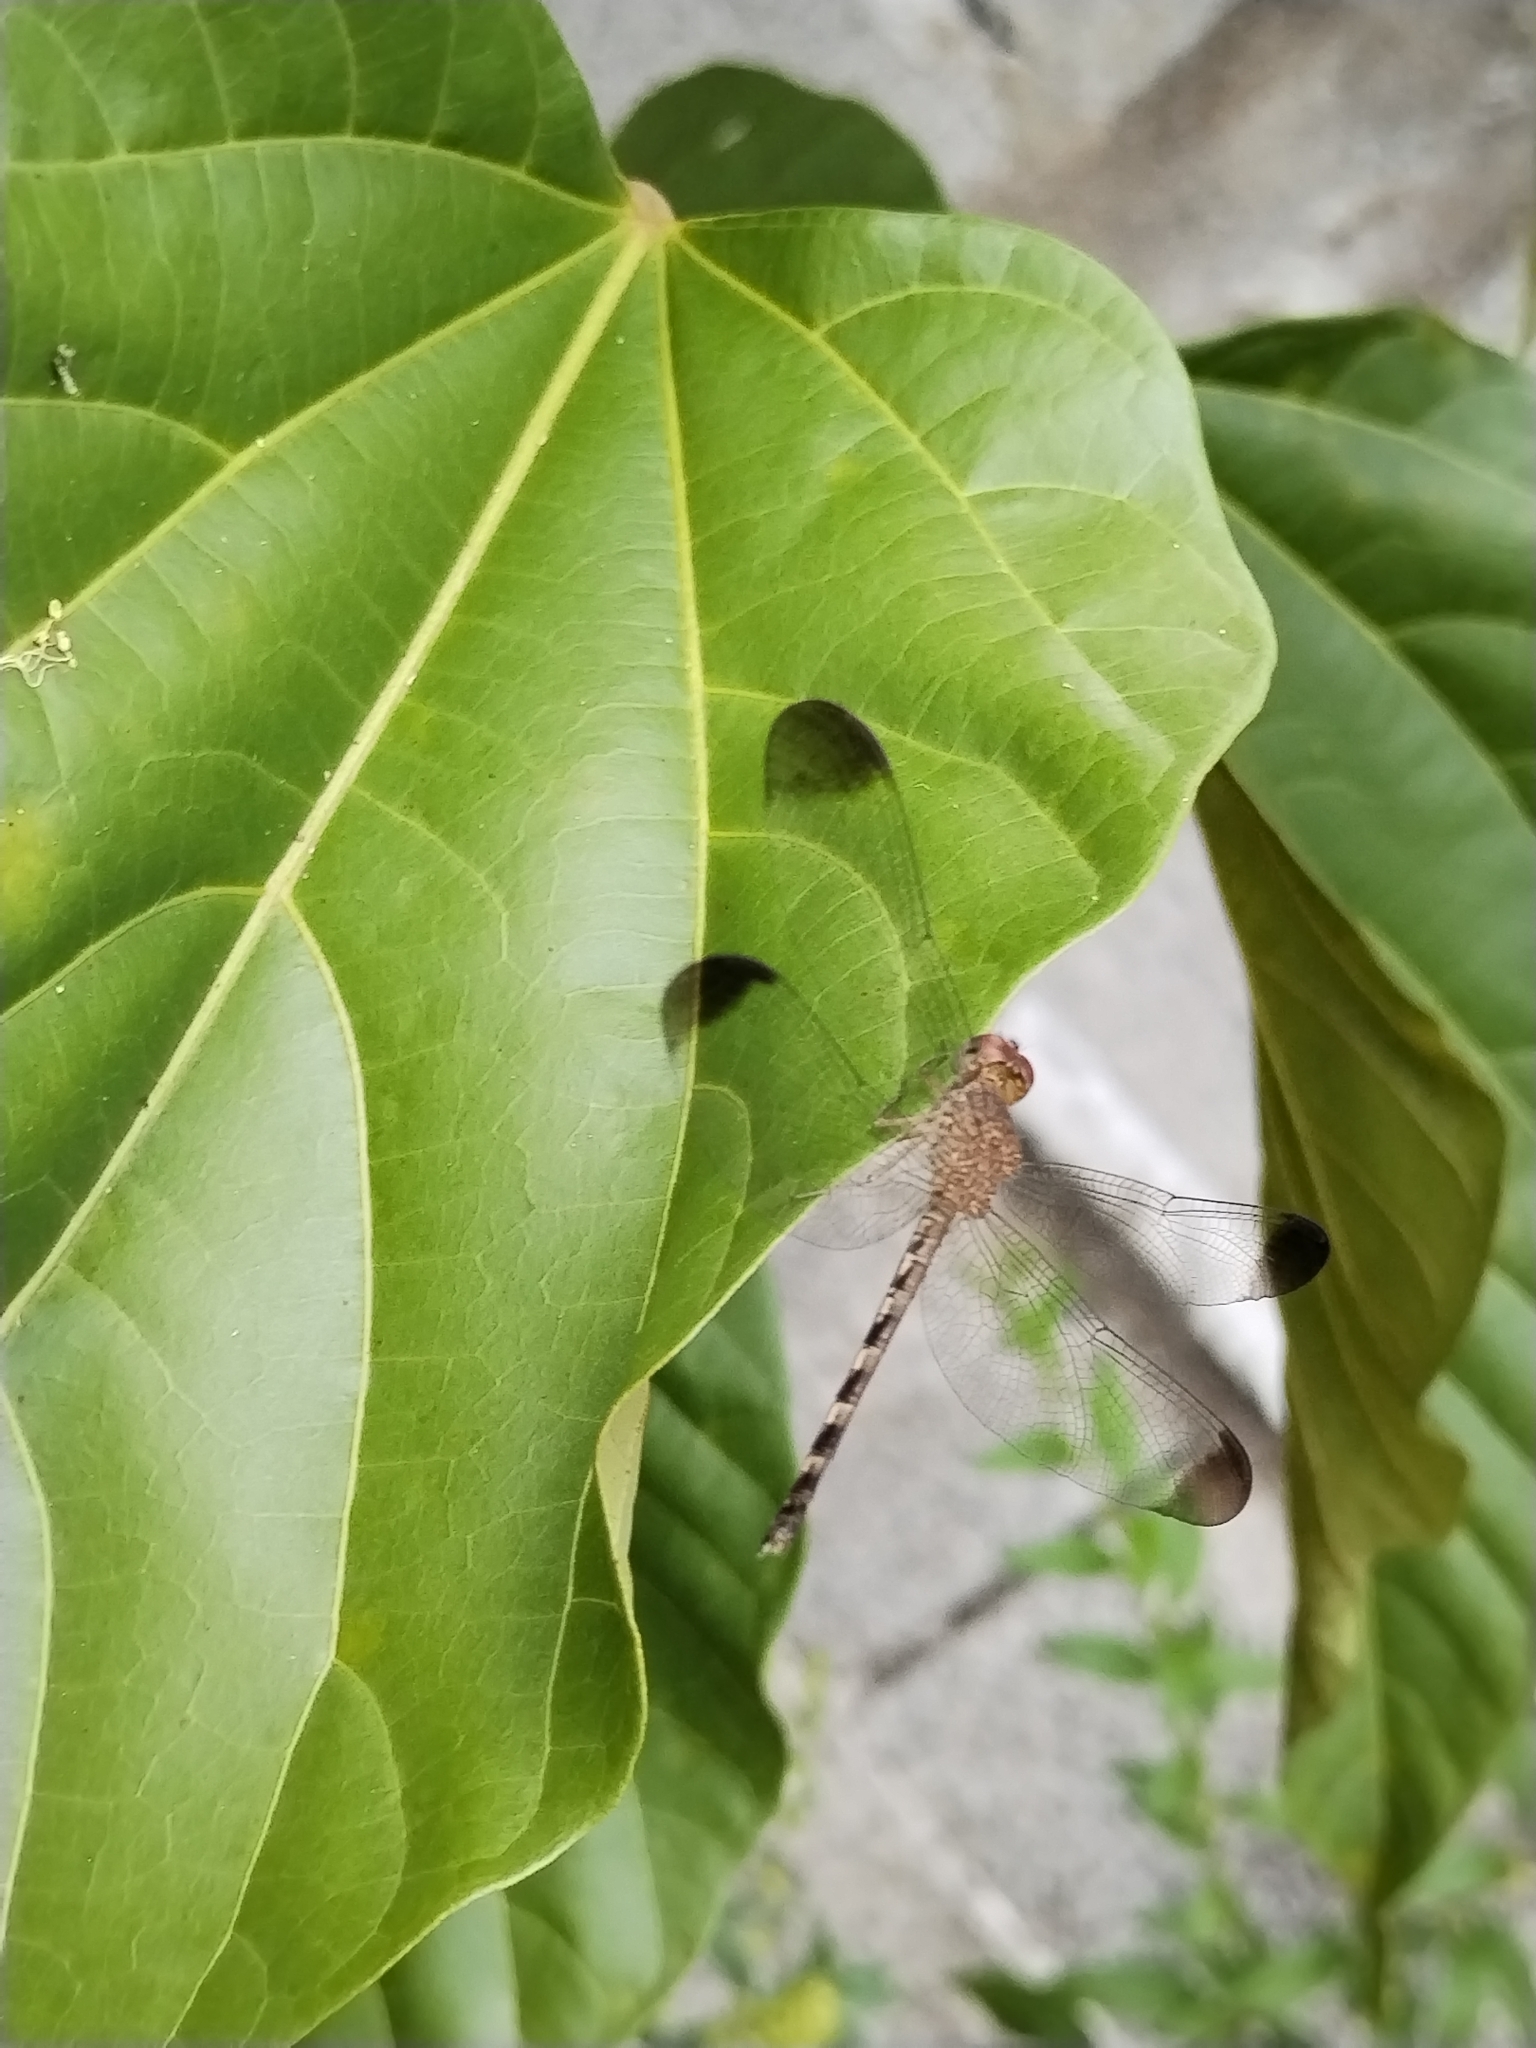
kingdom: Animalia
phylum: Arthropoda
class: Insecta
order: Odonata
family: Libellulidae
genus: Uracis
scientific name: Uracis imbuta
